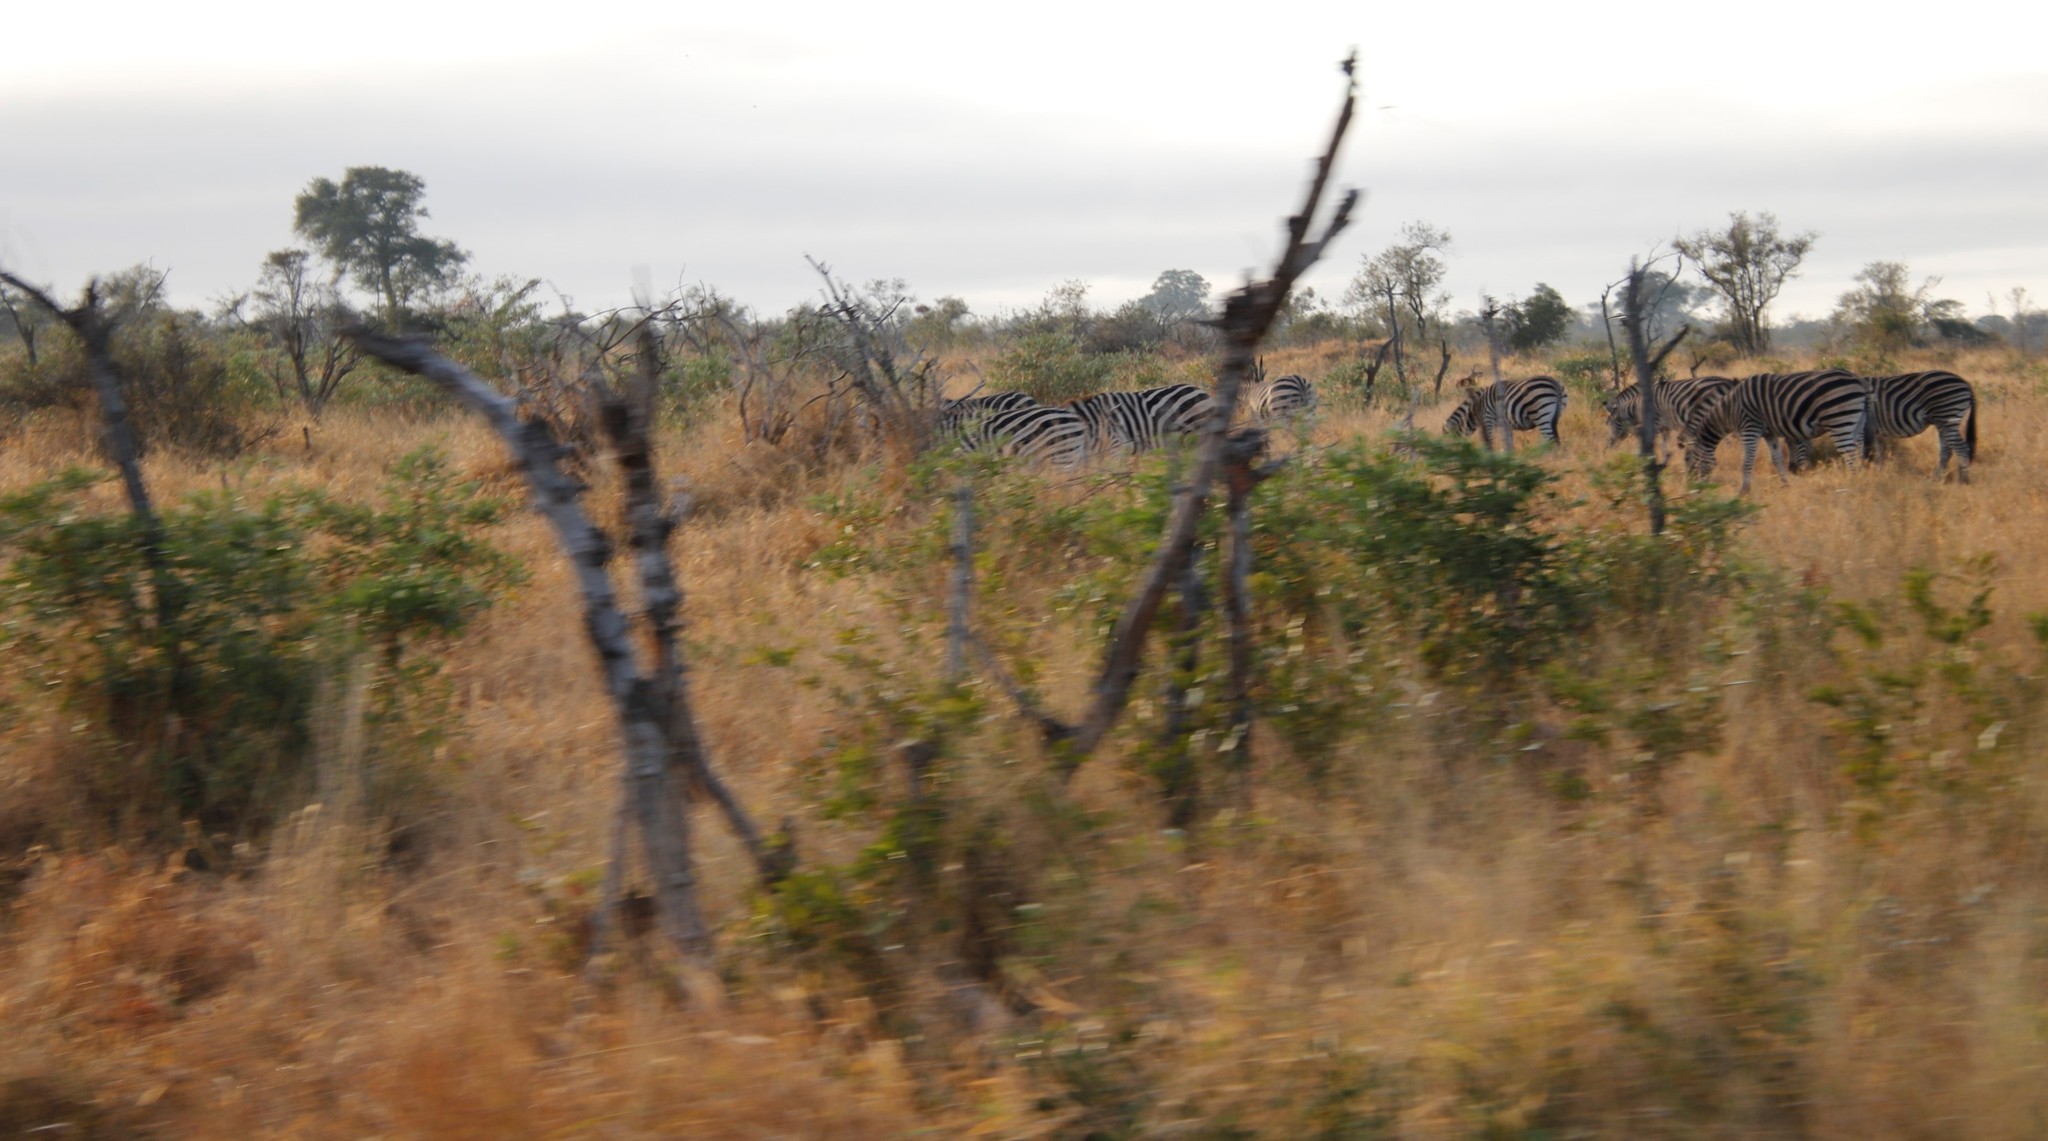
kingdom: Animalia
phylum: Chordata
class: Mammalia
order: Perissodactyla
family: Equidae
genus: Equus
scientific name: Equus quagga
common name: Plains zebra
